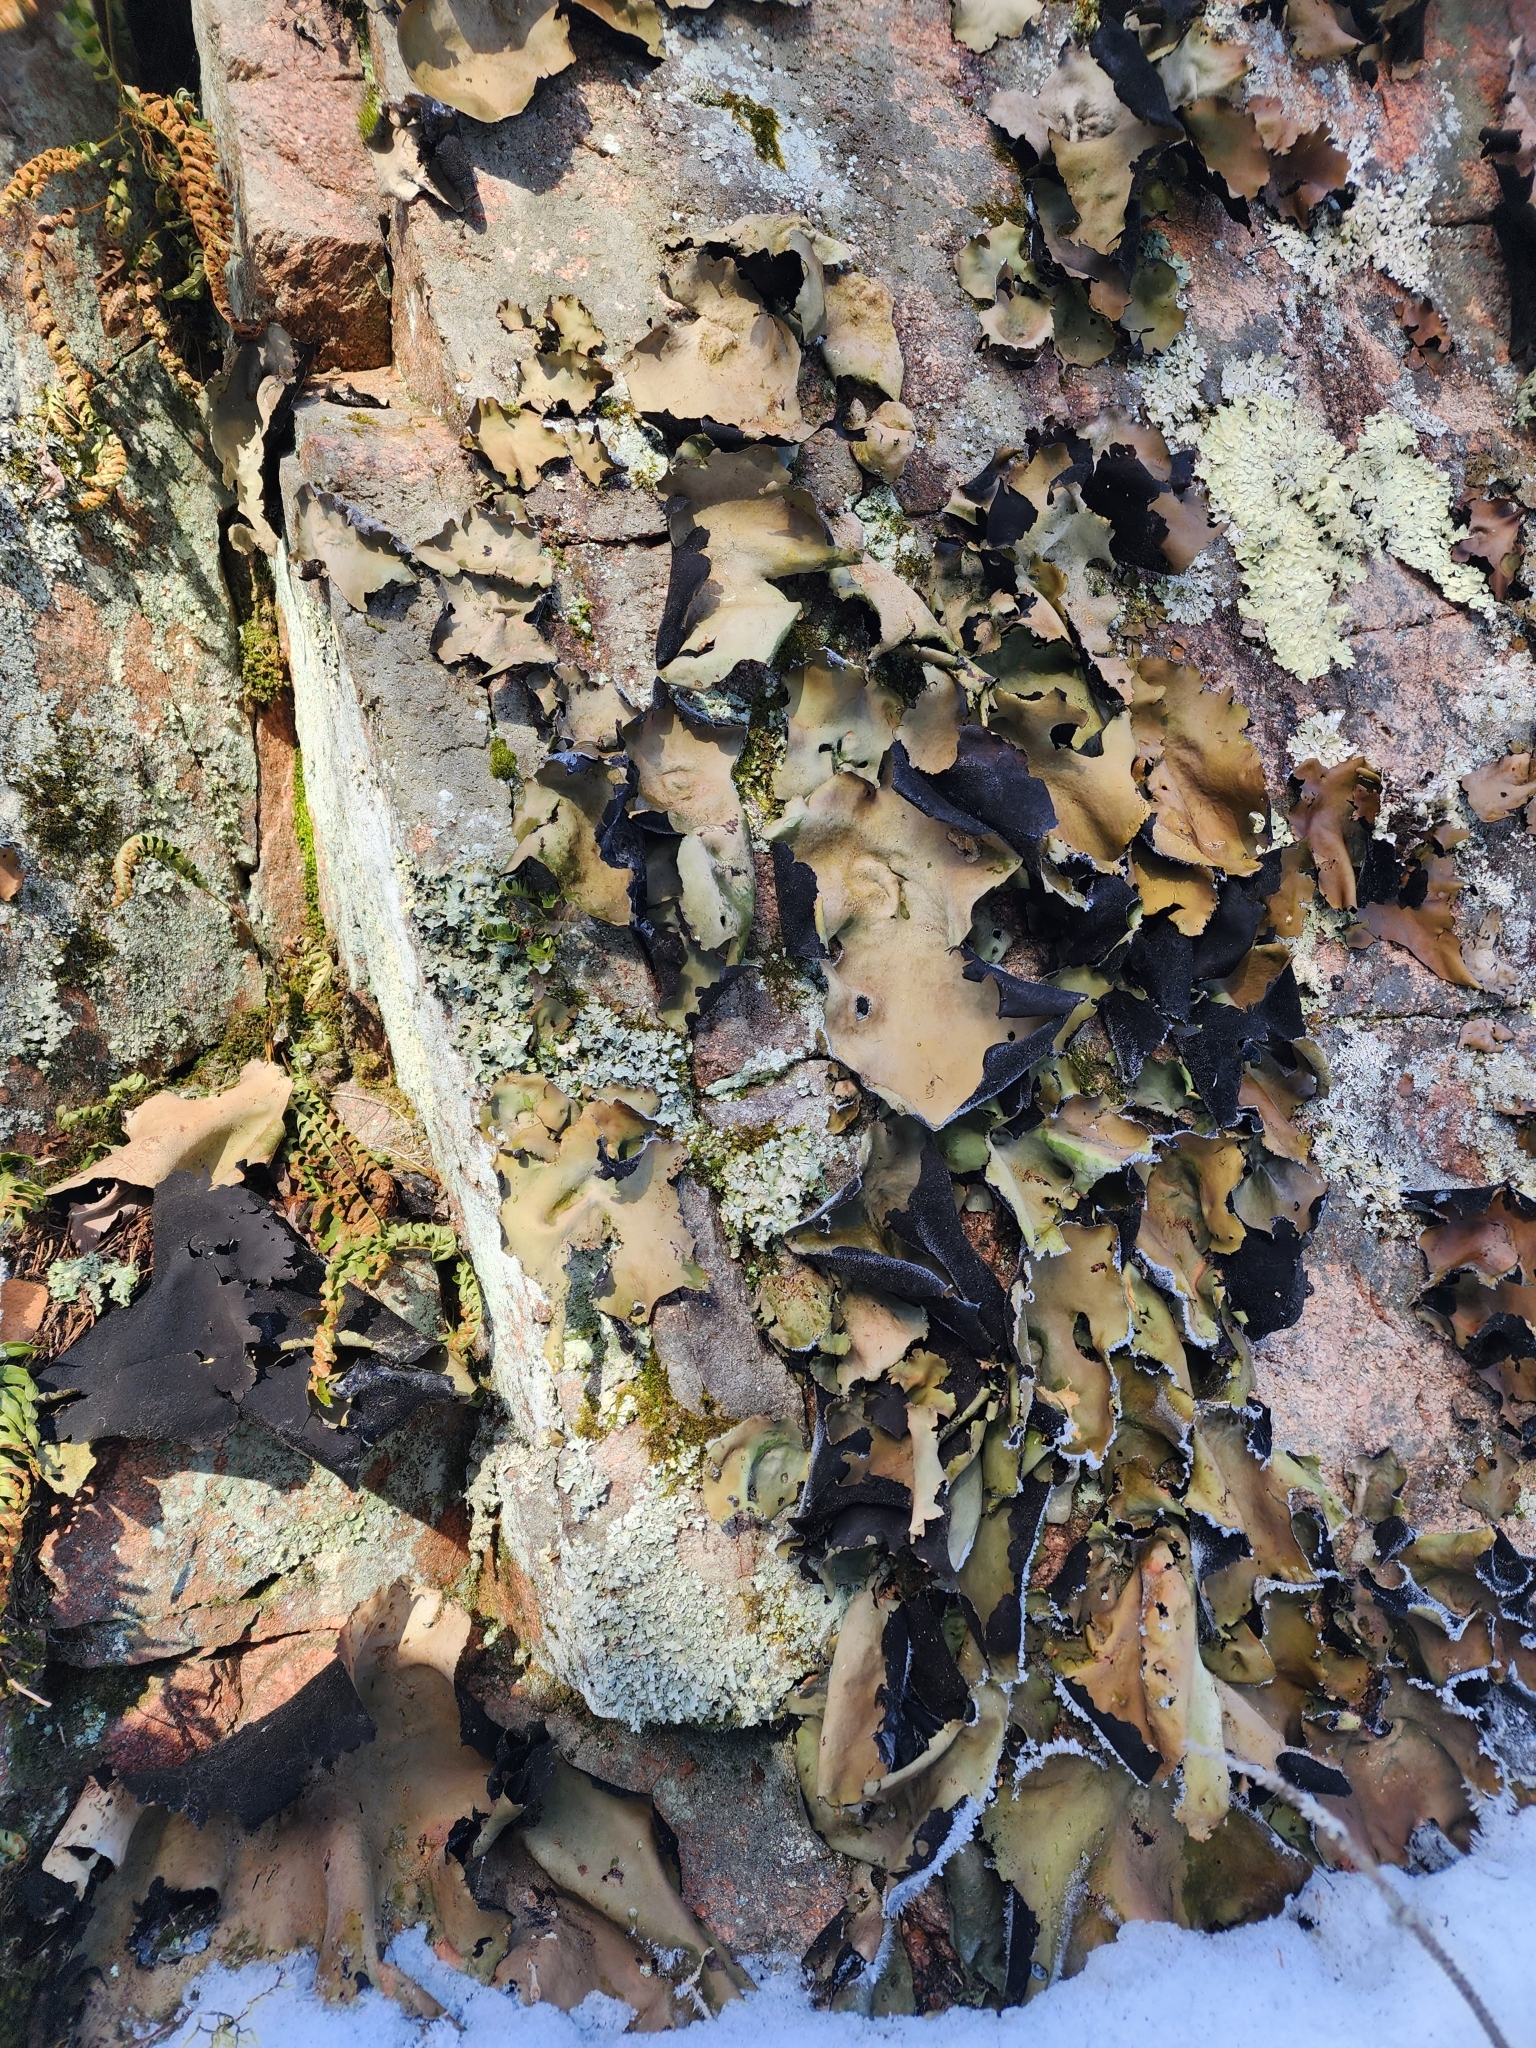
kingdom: Fungi
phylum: Ascomycota
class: Lecanoromycetes
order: Umbilicariales
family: Umbilicariaceae
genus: Umbilicaria
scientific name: Umbilicaria mammulata
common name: Smooth rock tripe
